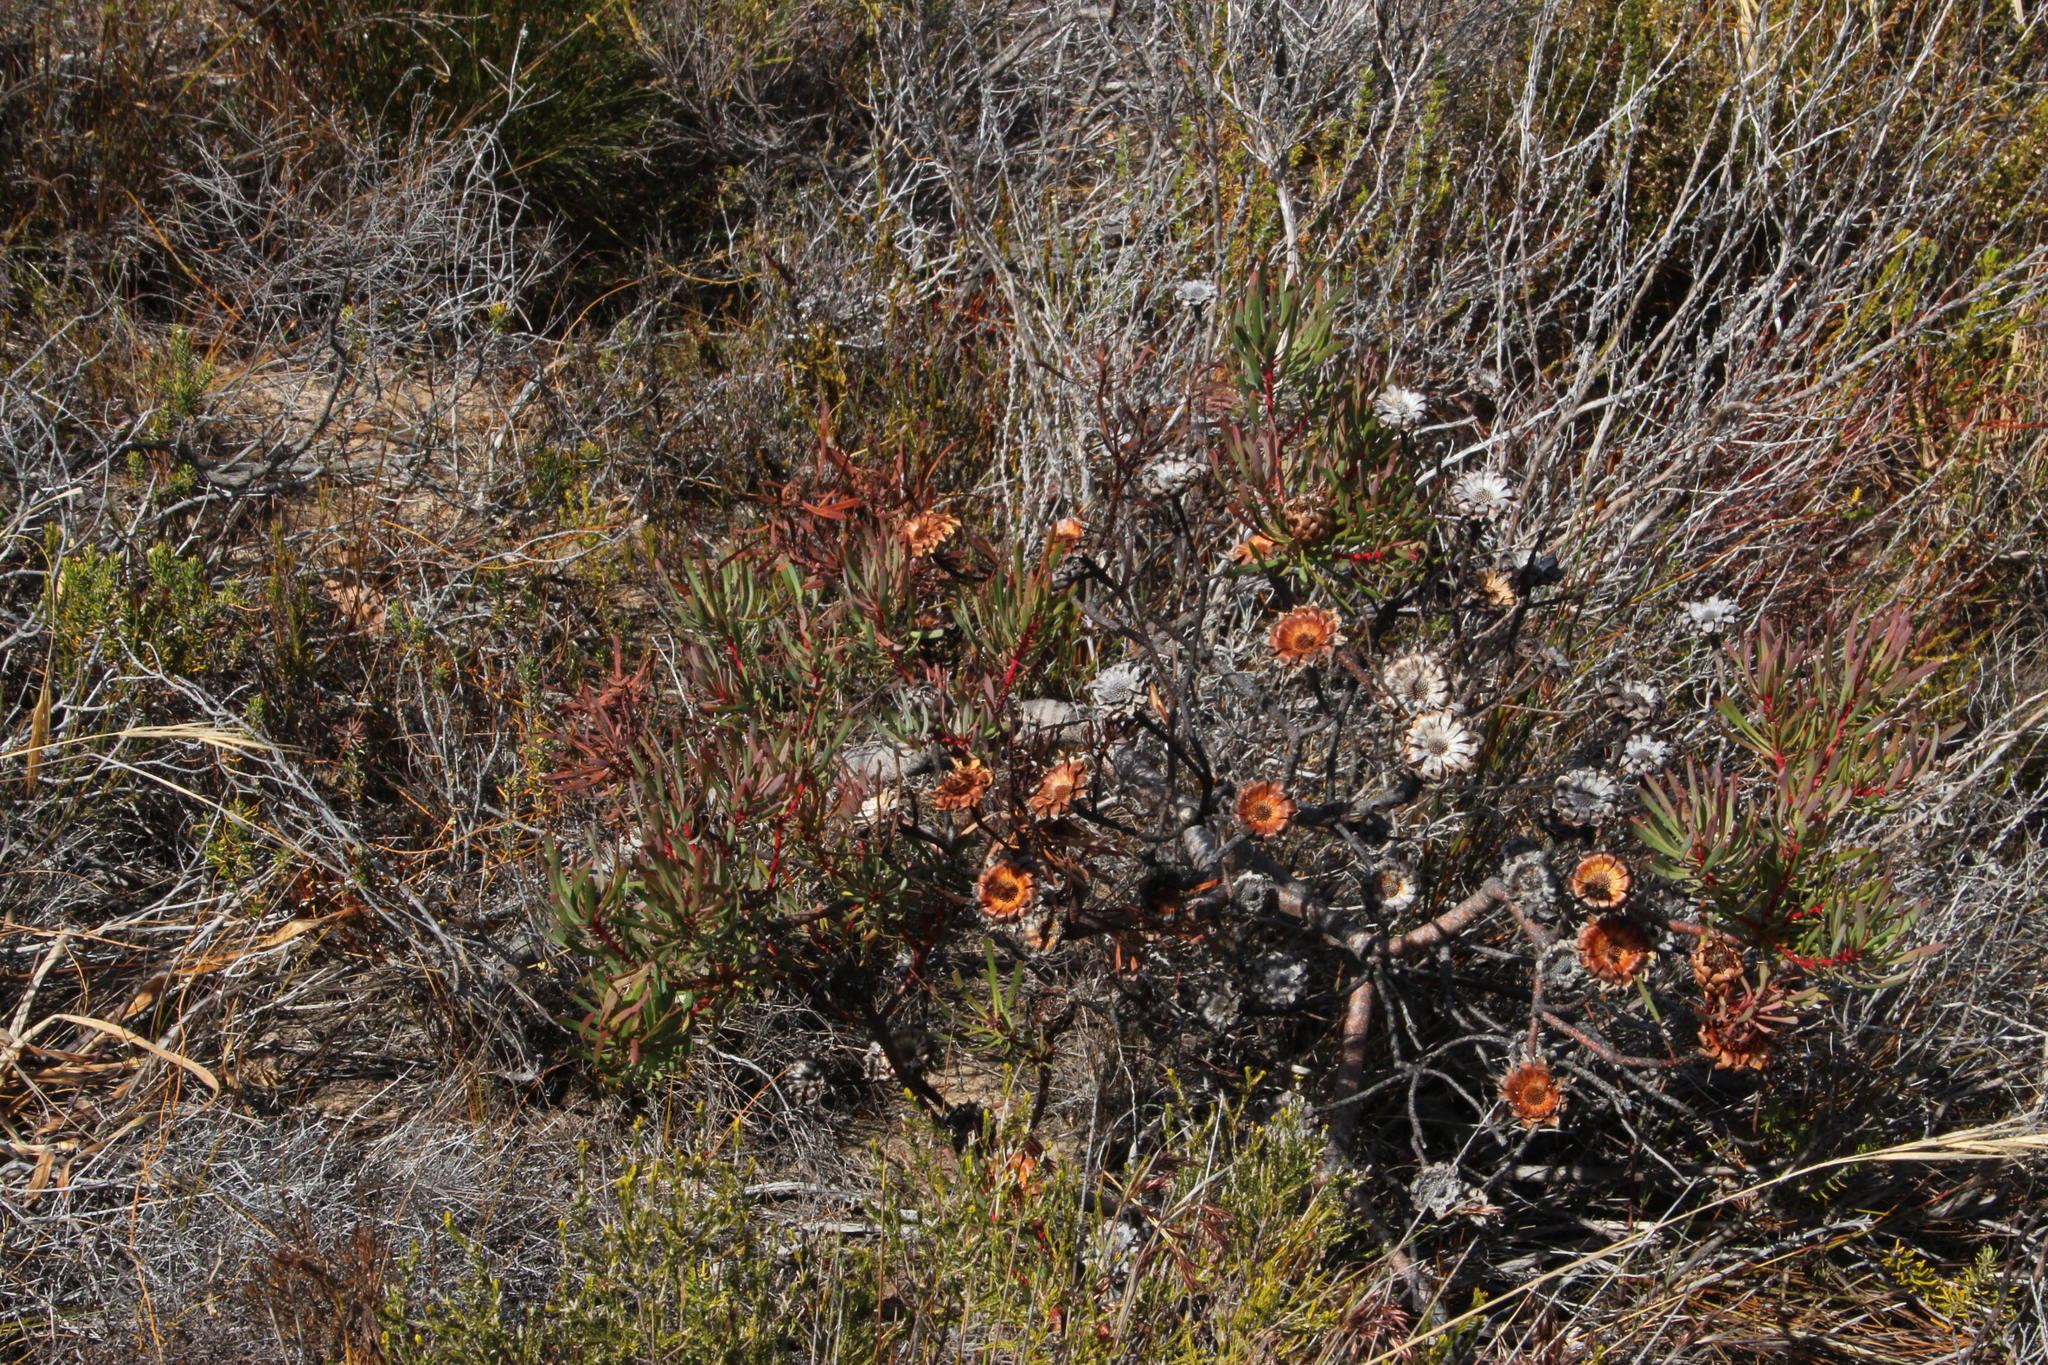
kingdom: Plantae
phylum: Tracheophyta
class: Magnoliopsida
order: Proteales
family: Proteaceae
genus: Protea
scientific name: Protea scolymocephala
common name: Thistle sugarbush
